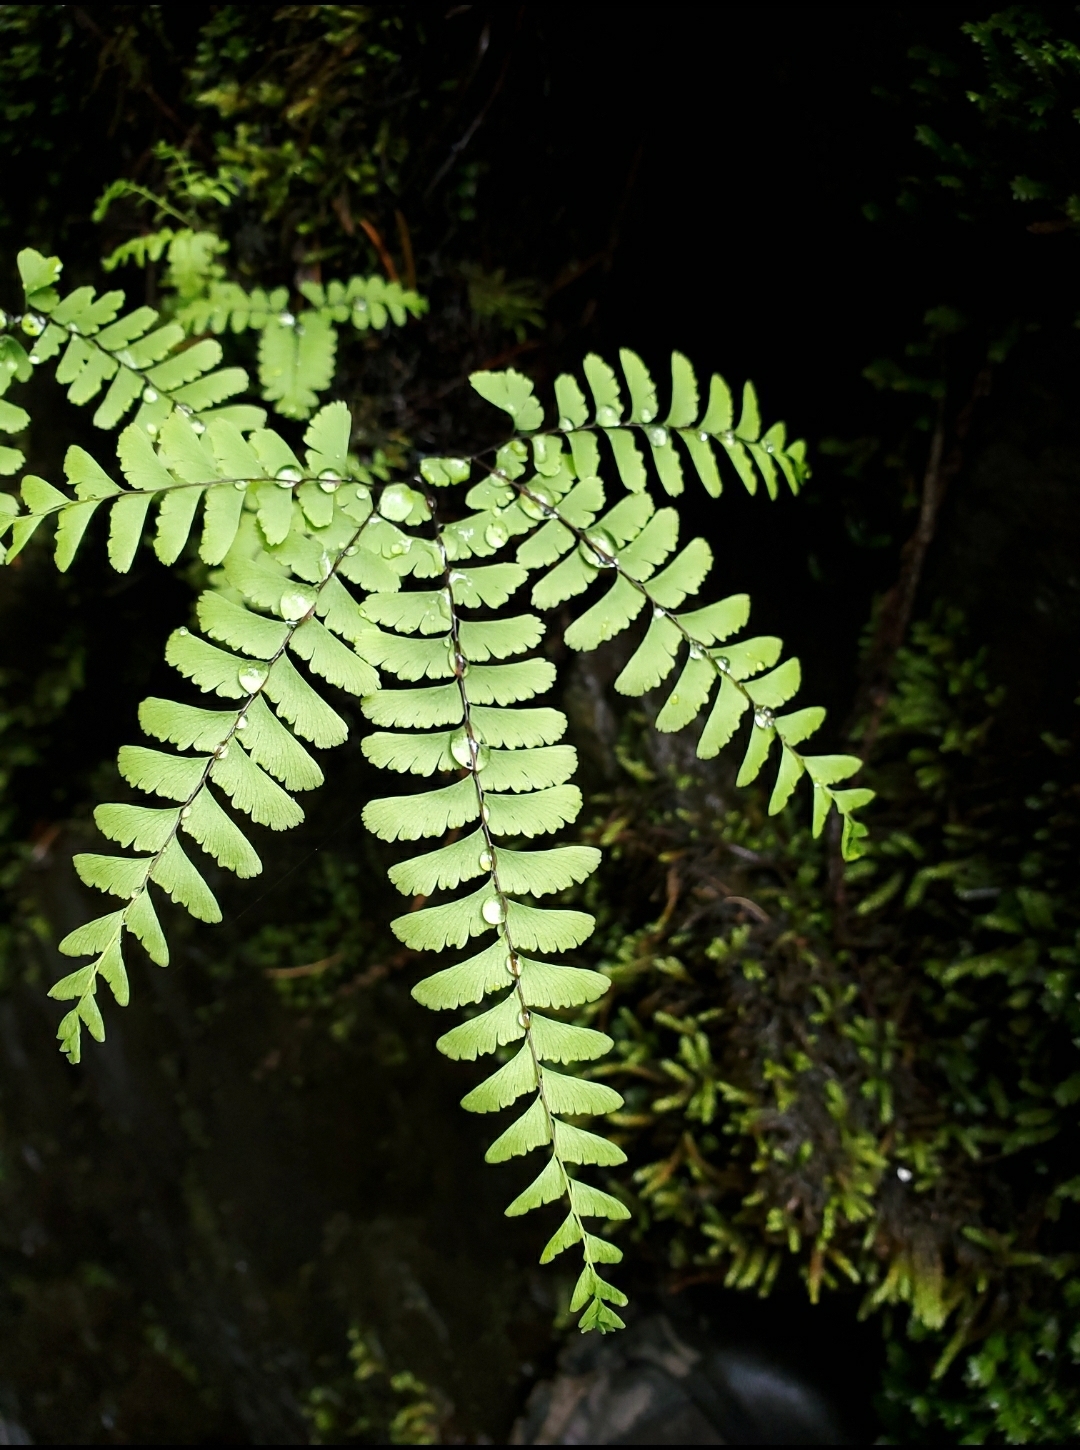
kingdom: Plantae
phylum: Tracheophyta
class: Polypodiopsida
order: Polypodiales
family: Pteridaceae
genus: Adiantum
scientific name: Adiantum aleuticum
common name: Aleutian maidenhair fern
